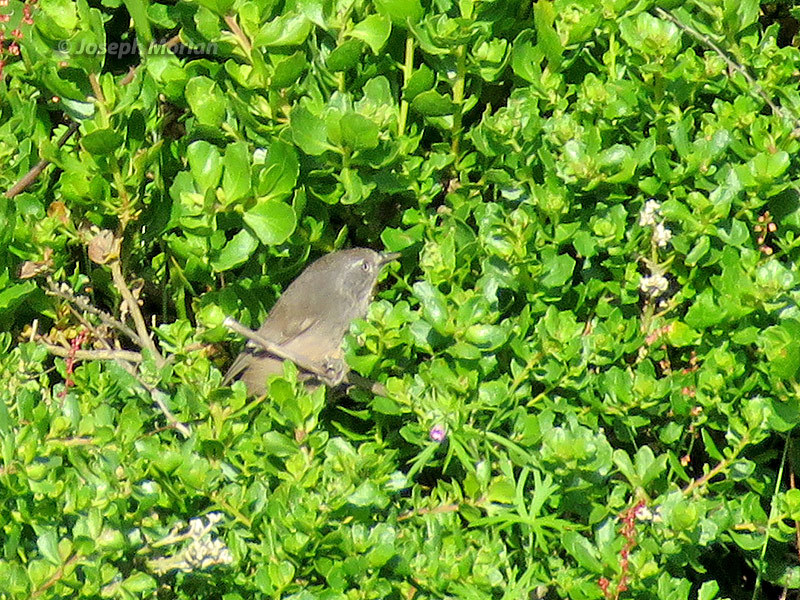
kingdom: Animalia
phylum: Chordata
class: Aves
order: Passeriformes
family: Sylviidae
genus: Chamaea
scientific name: Chamaea fasciata
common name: Wrentit
